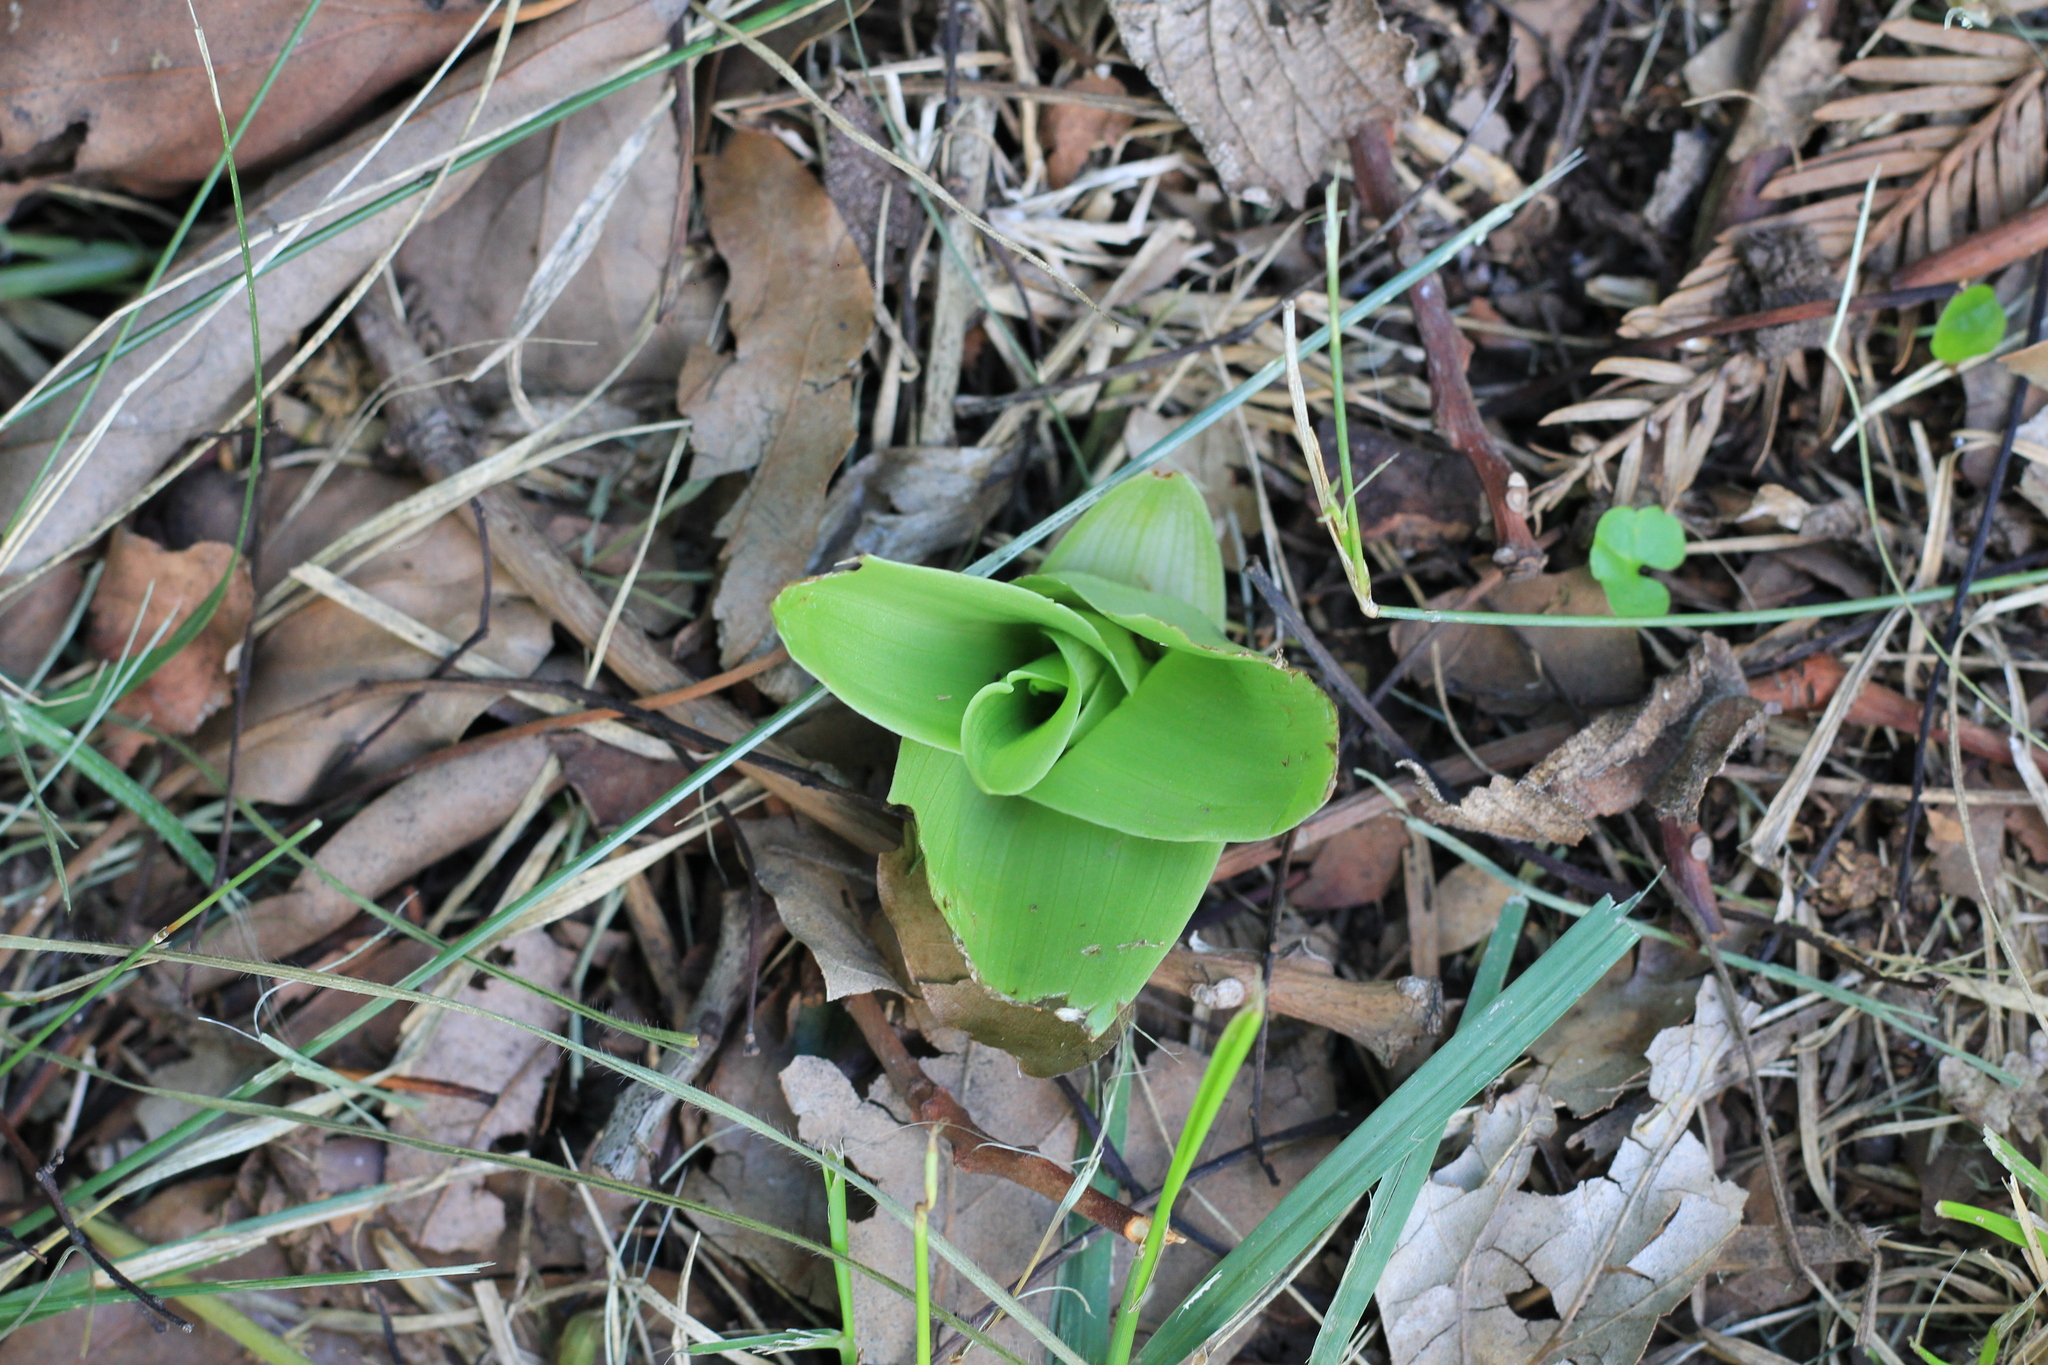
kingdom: Plantae
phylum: Tracheophyta
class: Liliopsida
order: Asparagales
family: Orchidaceae
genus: Chloraea
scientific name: Chloraea membranacea
